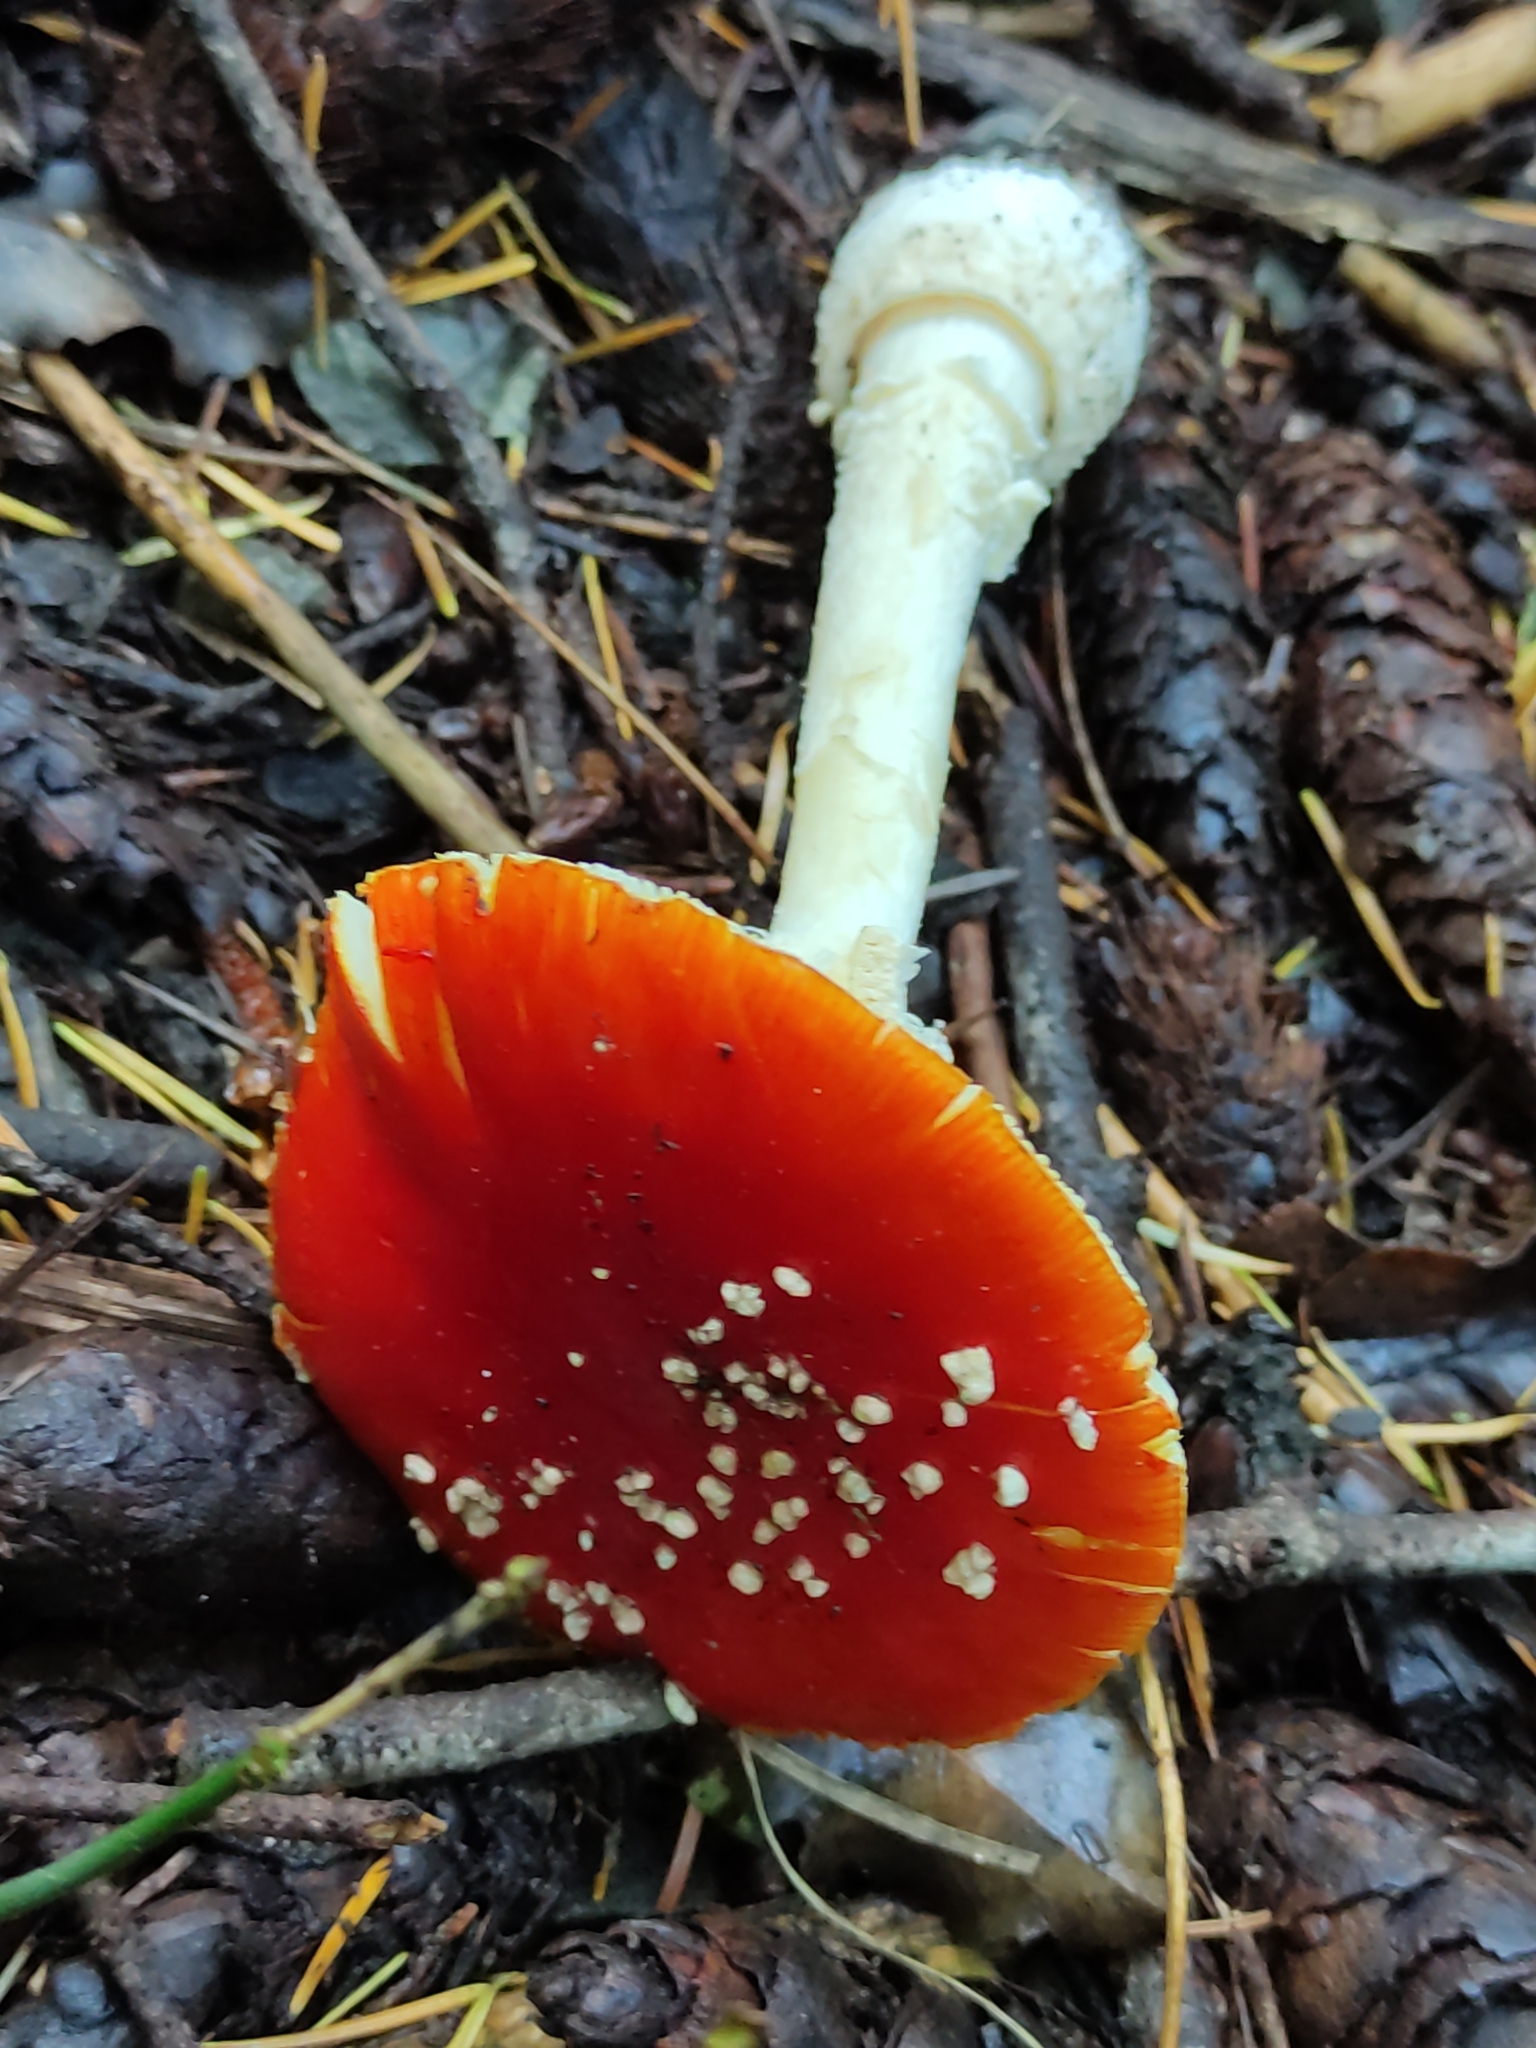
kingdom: Fungi
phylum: Basidiomycota
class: Agaricomycetes
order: Agaricales
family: Amanitaceae
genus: Amanita
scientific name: Amanita muscaria
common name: Fly agaric
